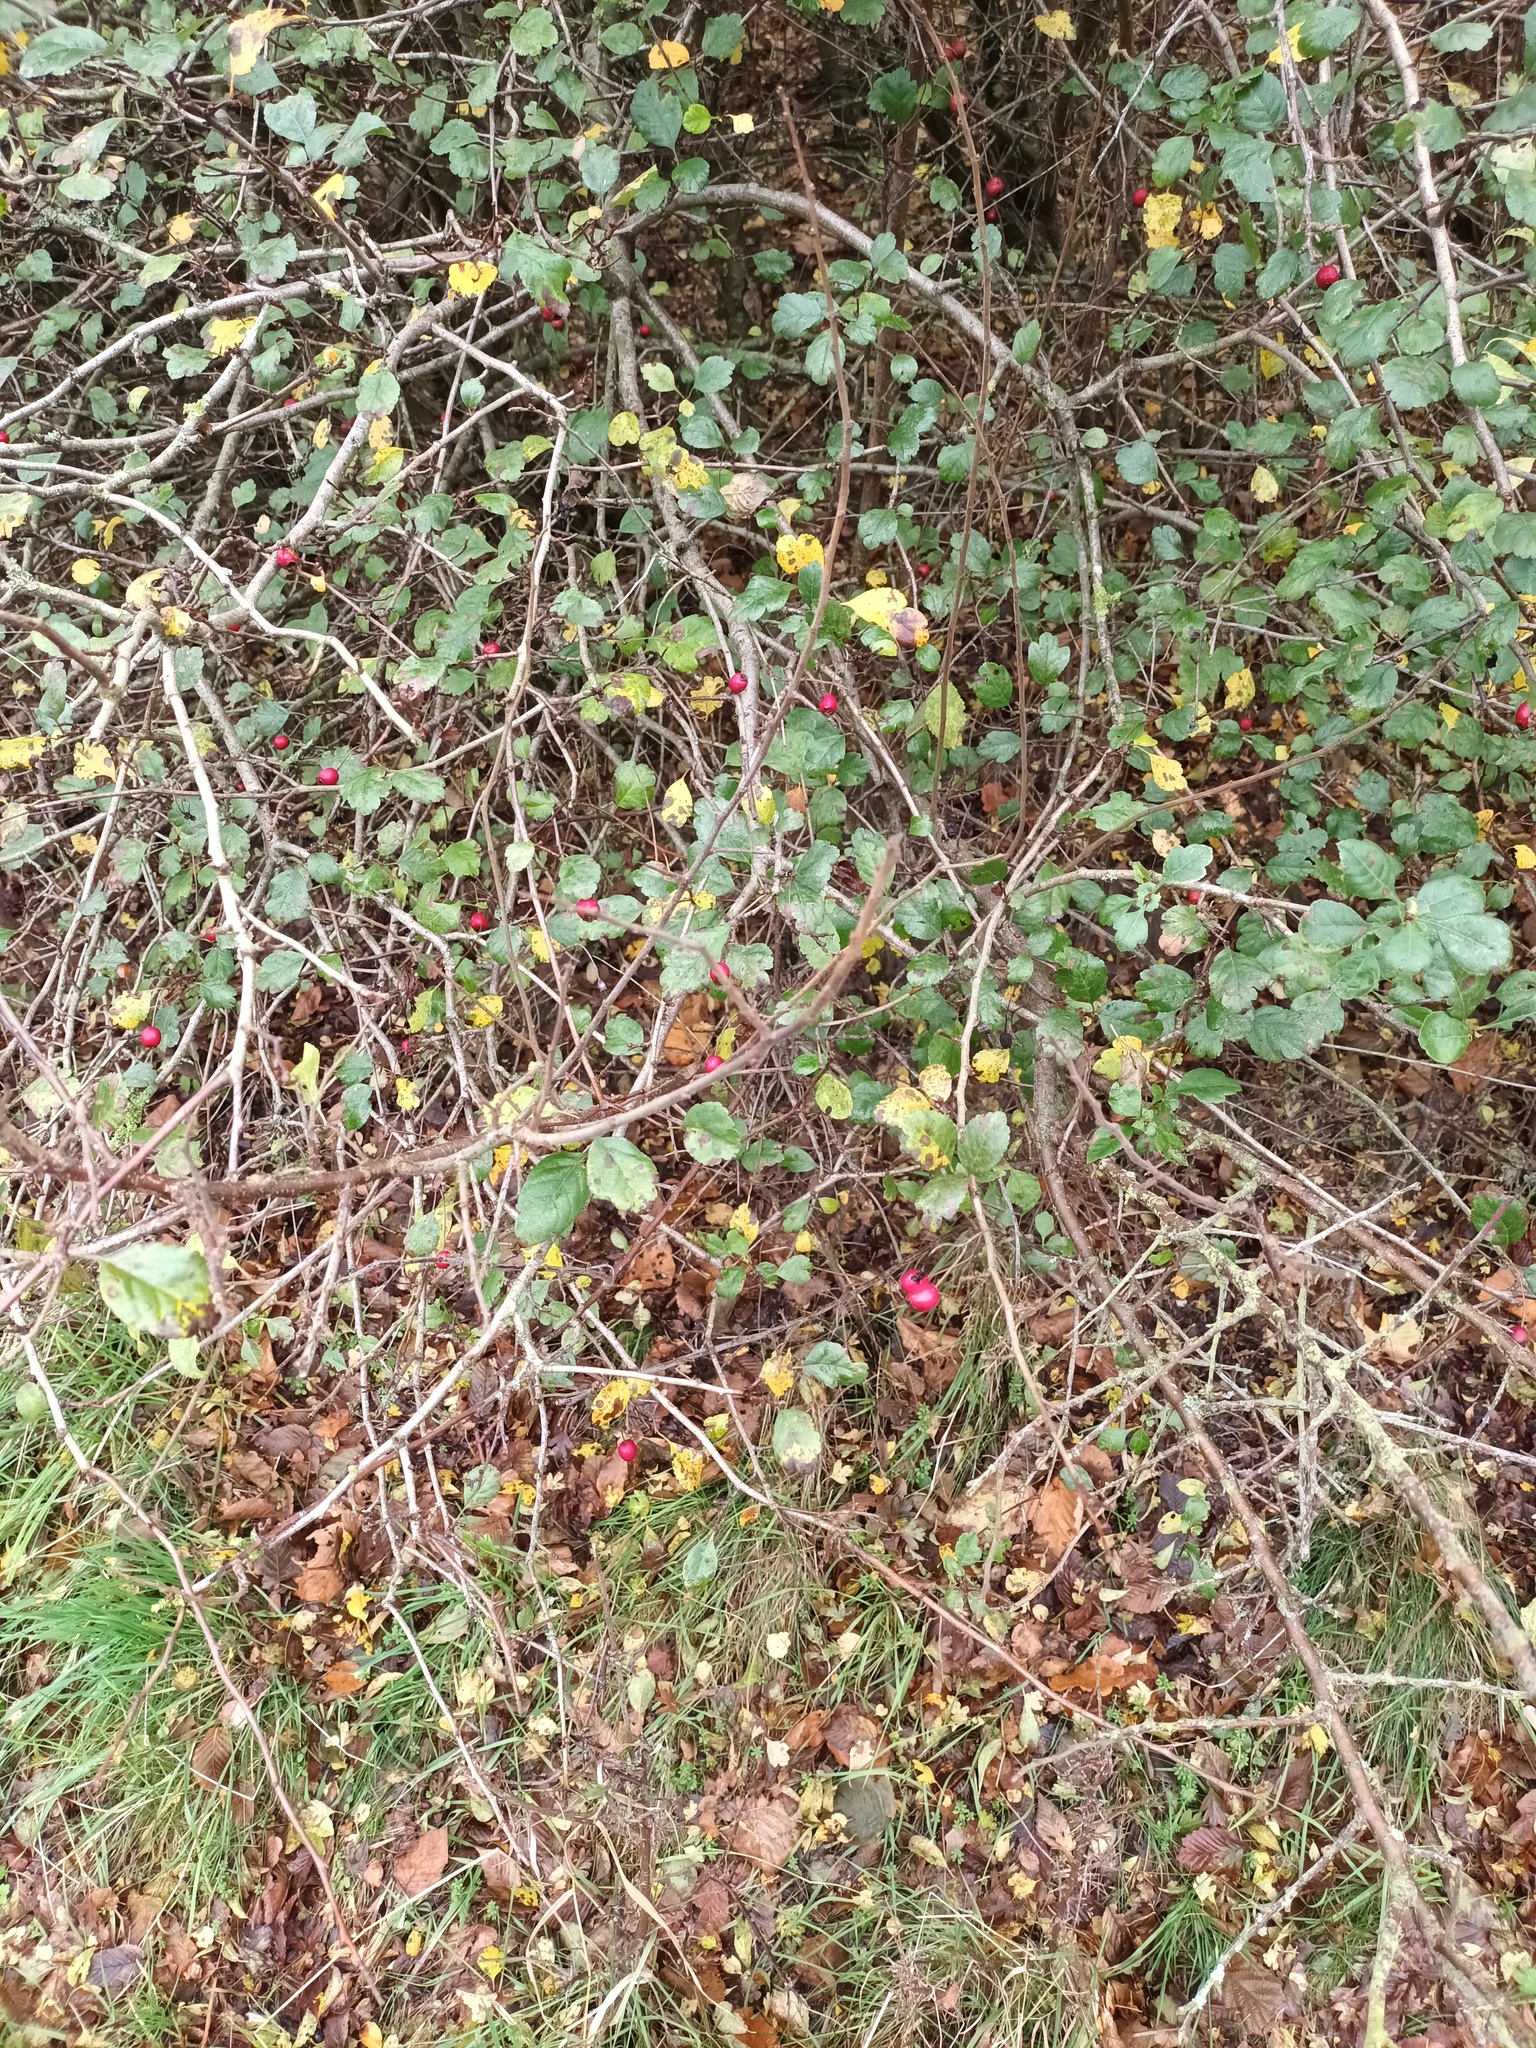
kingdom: Plantae
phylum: Tracheophyta
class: Magnoliopsida
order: Rosales
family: Rosaceae
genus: Crataegus
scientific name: Crataegus laevigata
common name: Midland hawthorn
